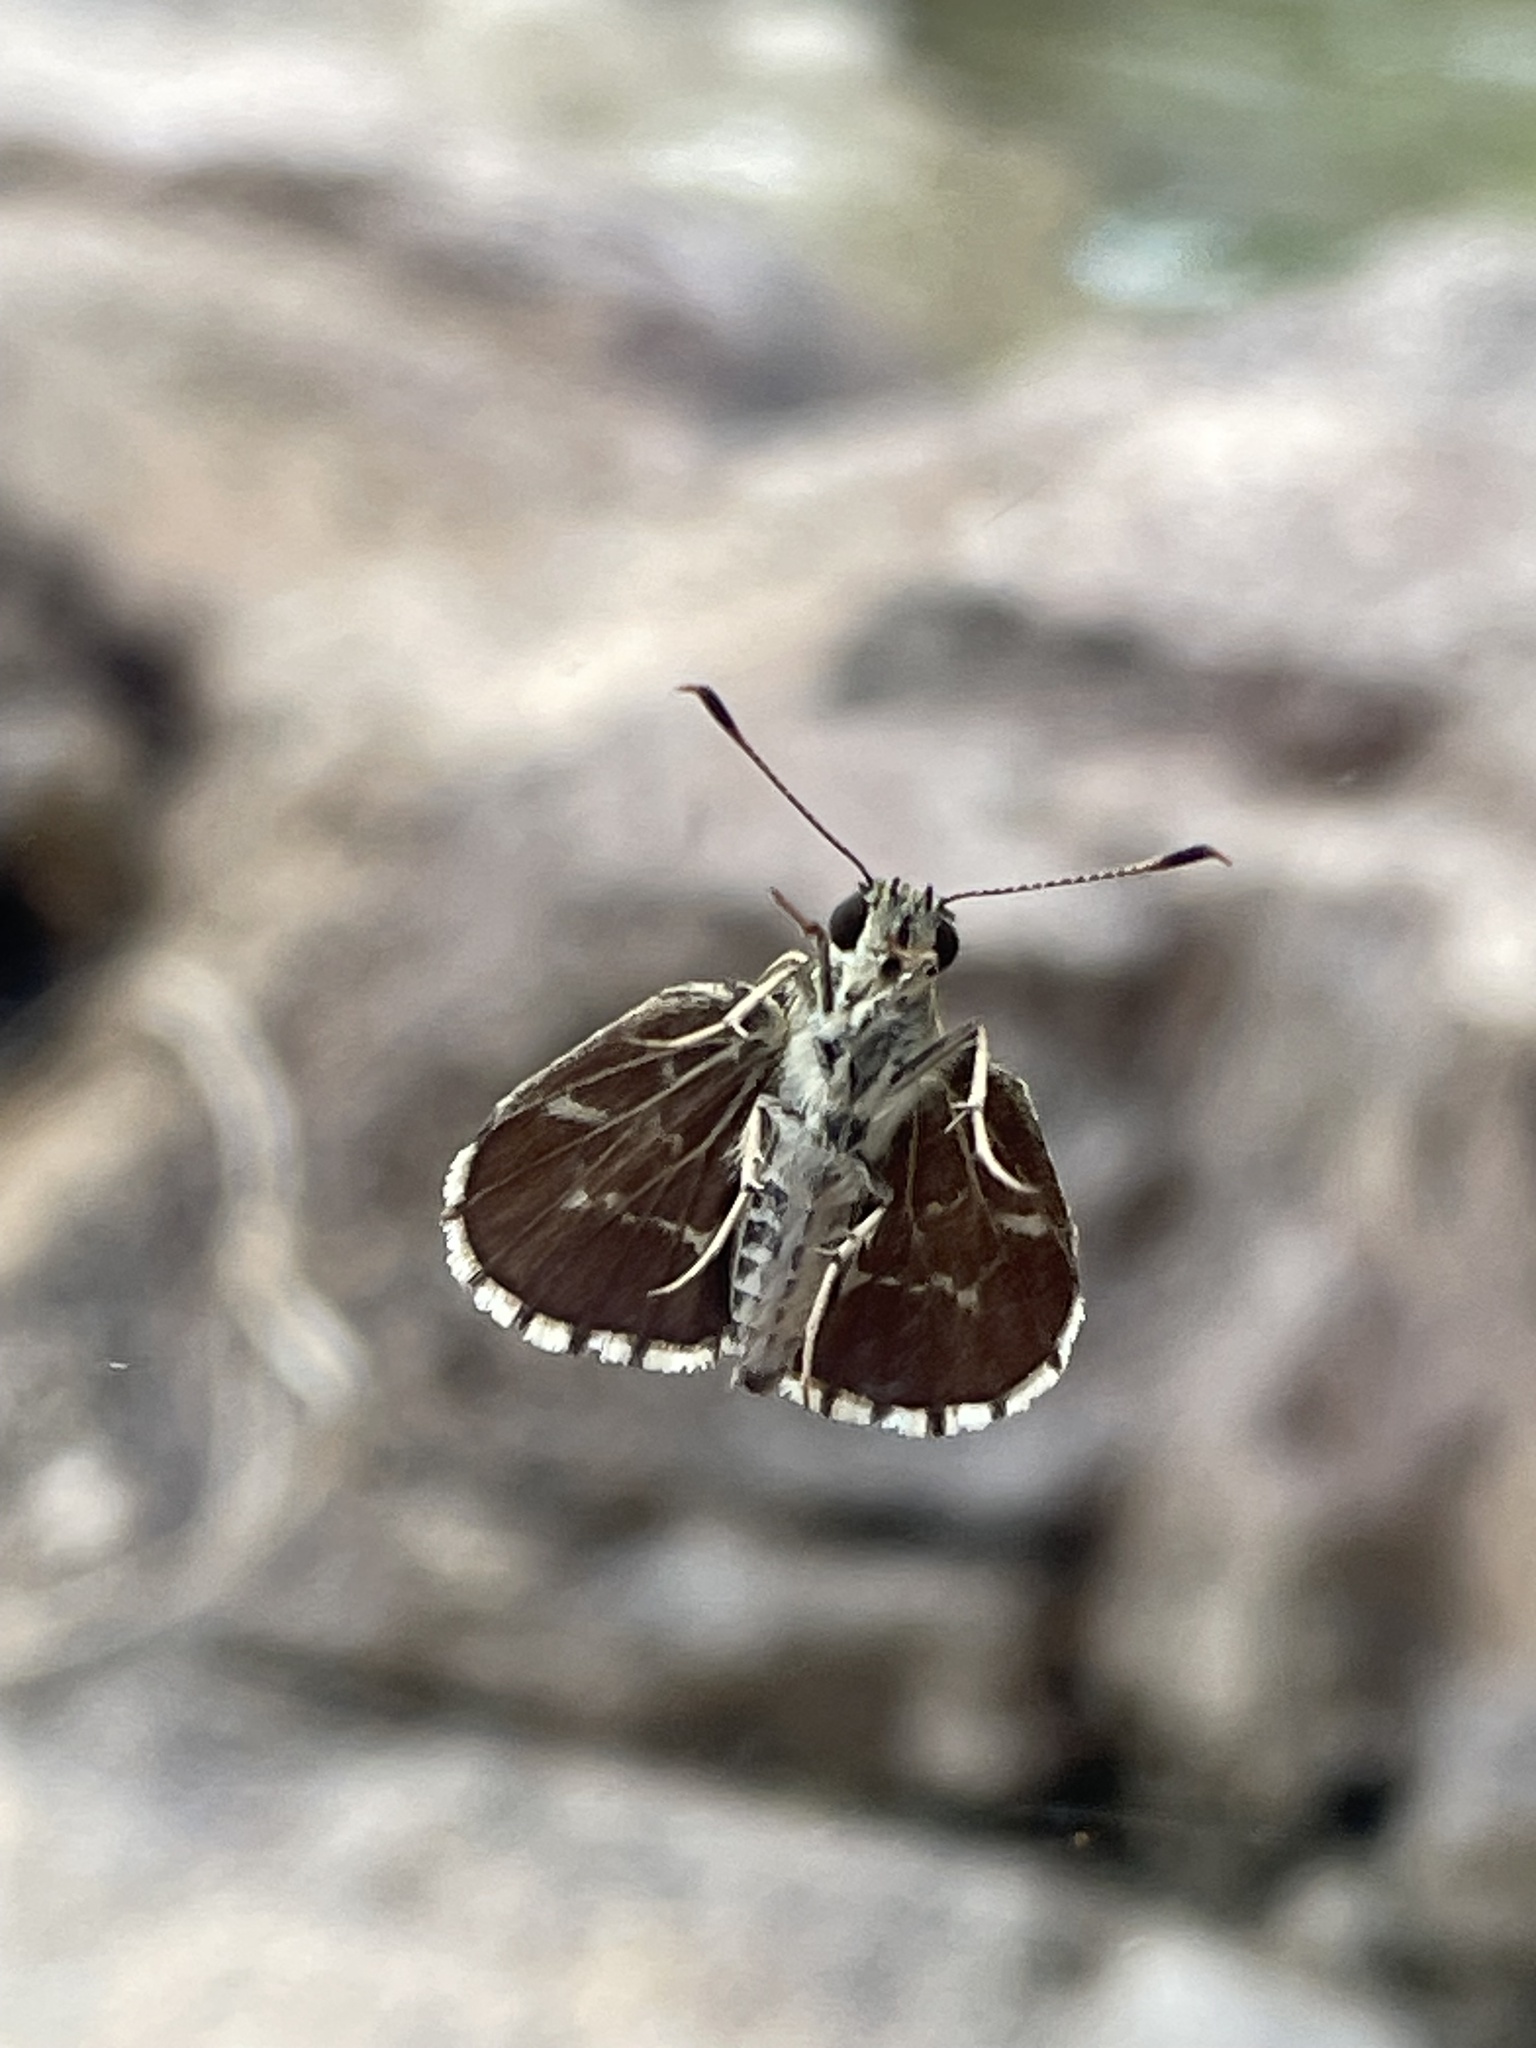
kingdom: Animalia
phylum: Arthropoda
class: Insecta
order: Lepidoptera
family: Hesperiidae
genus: Mastor
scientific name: Mastor aesculapius
